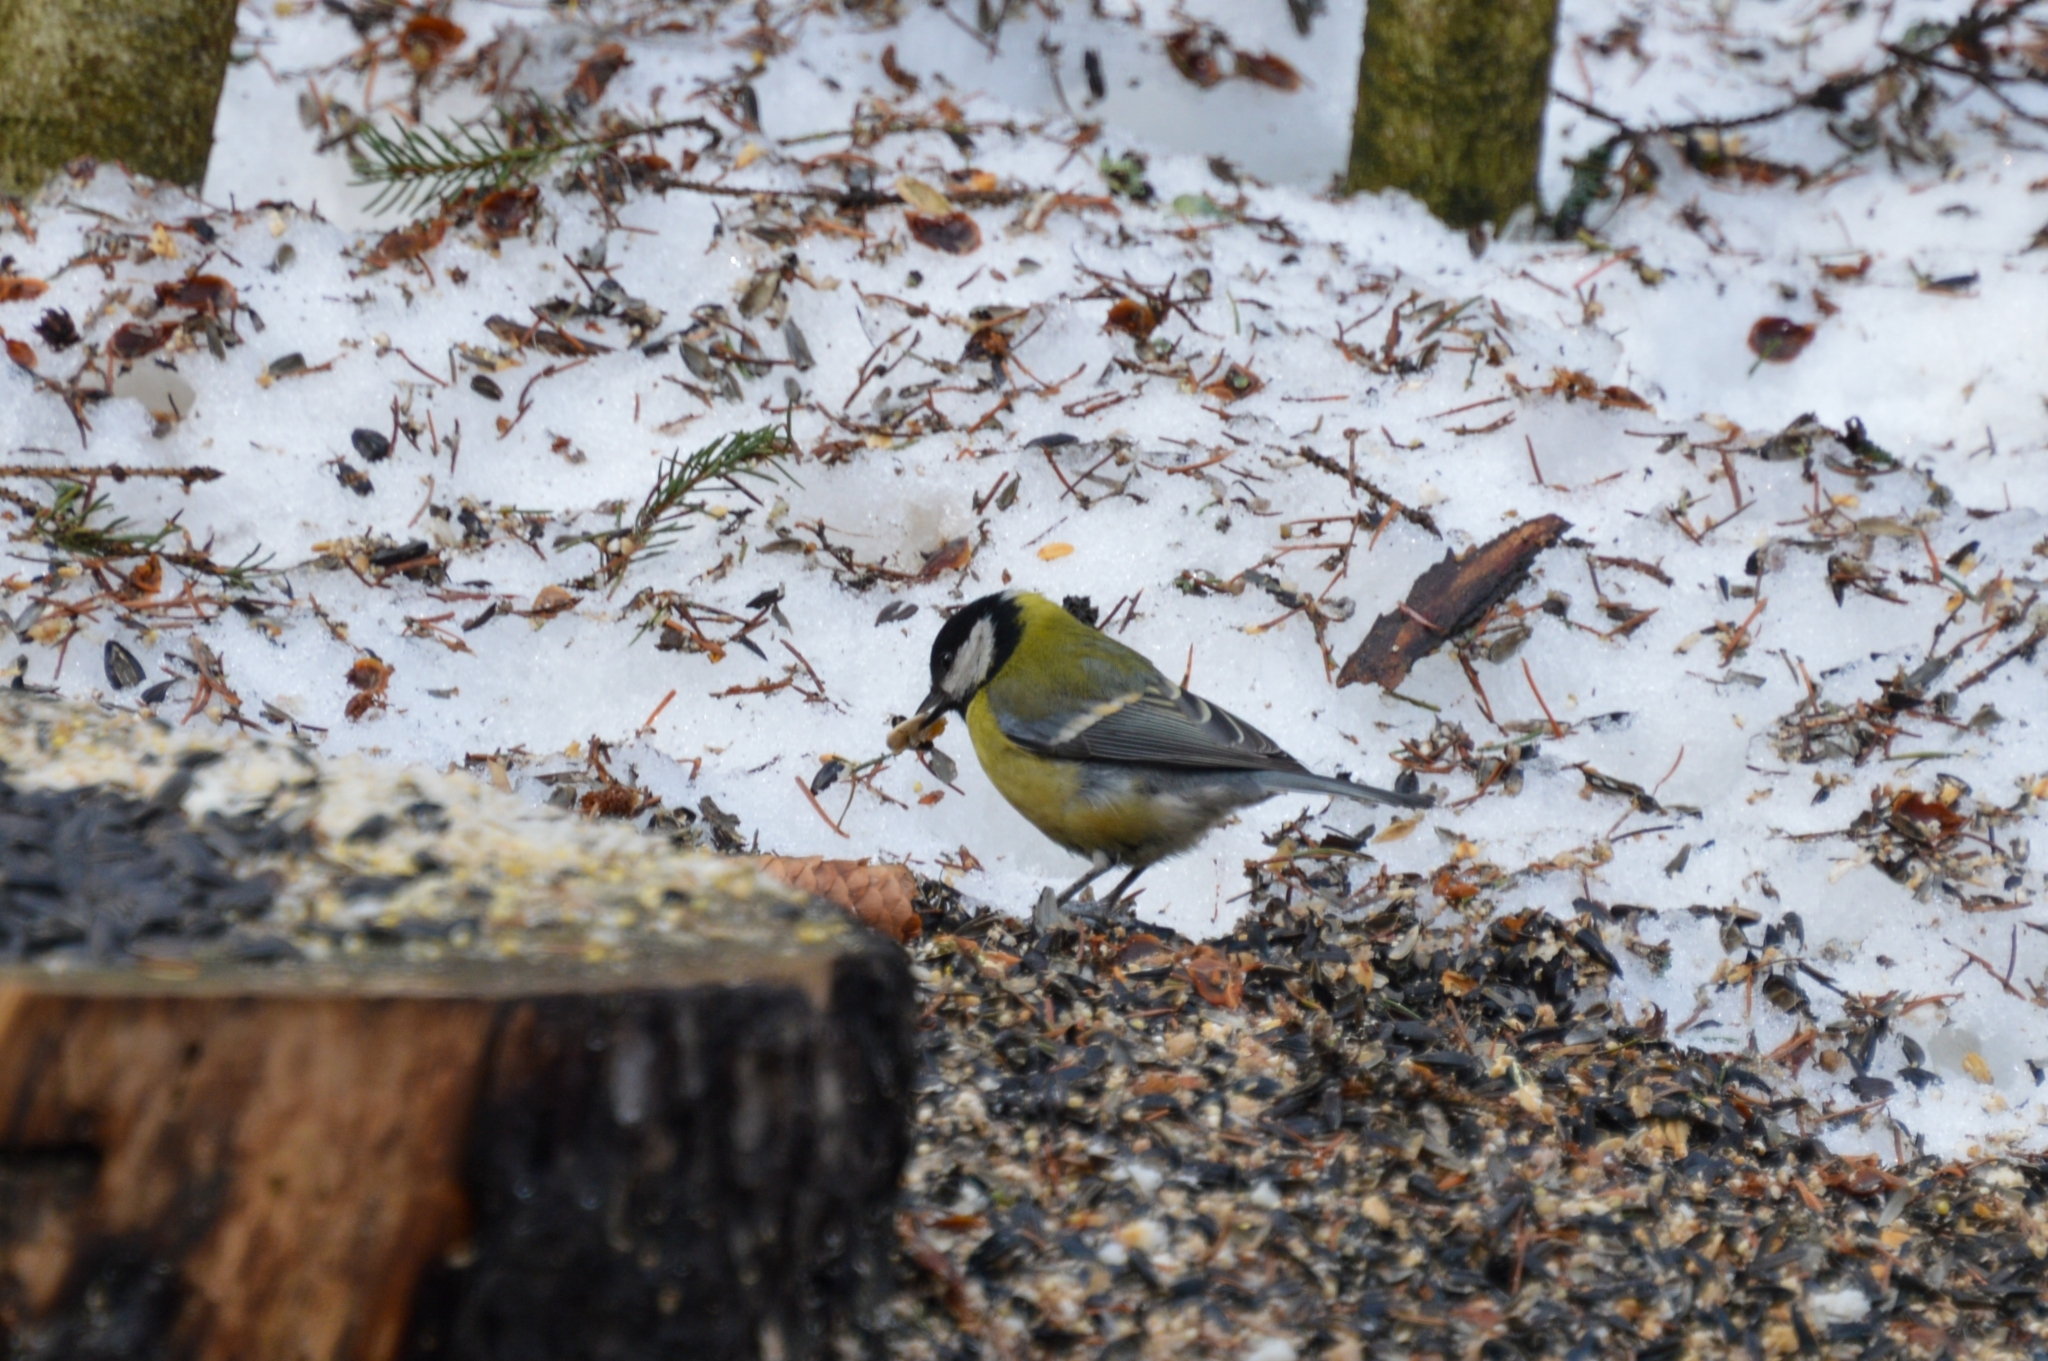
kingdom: Animalia
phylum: Chordata
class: Aves
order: Passeriformes
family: Paridae
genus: Parus
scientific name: Parus major
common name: Great tit
